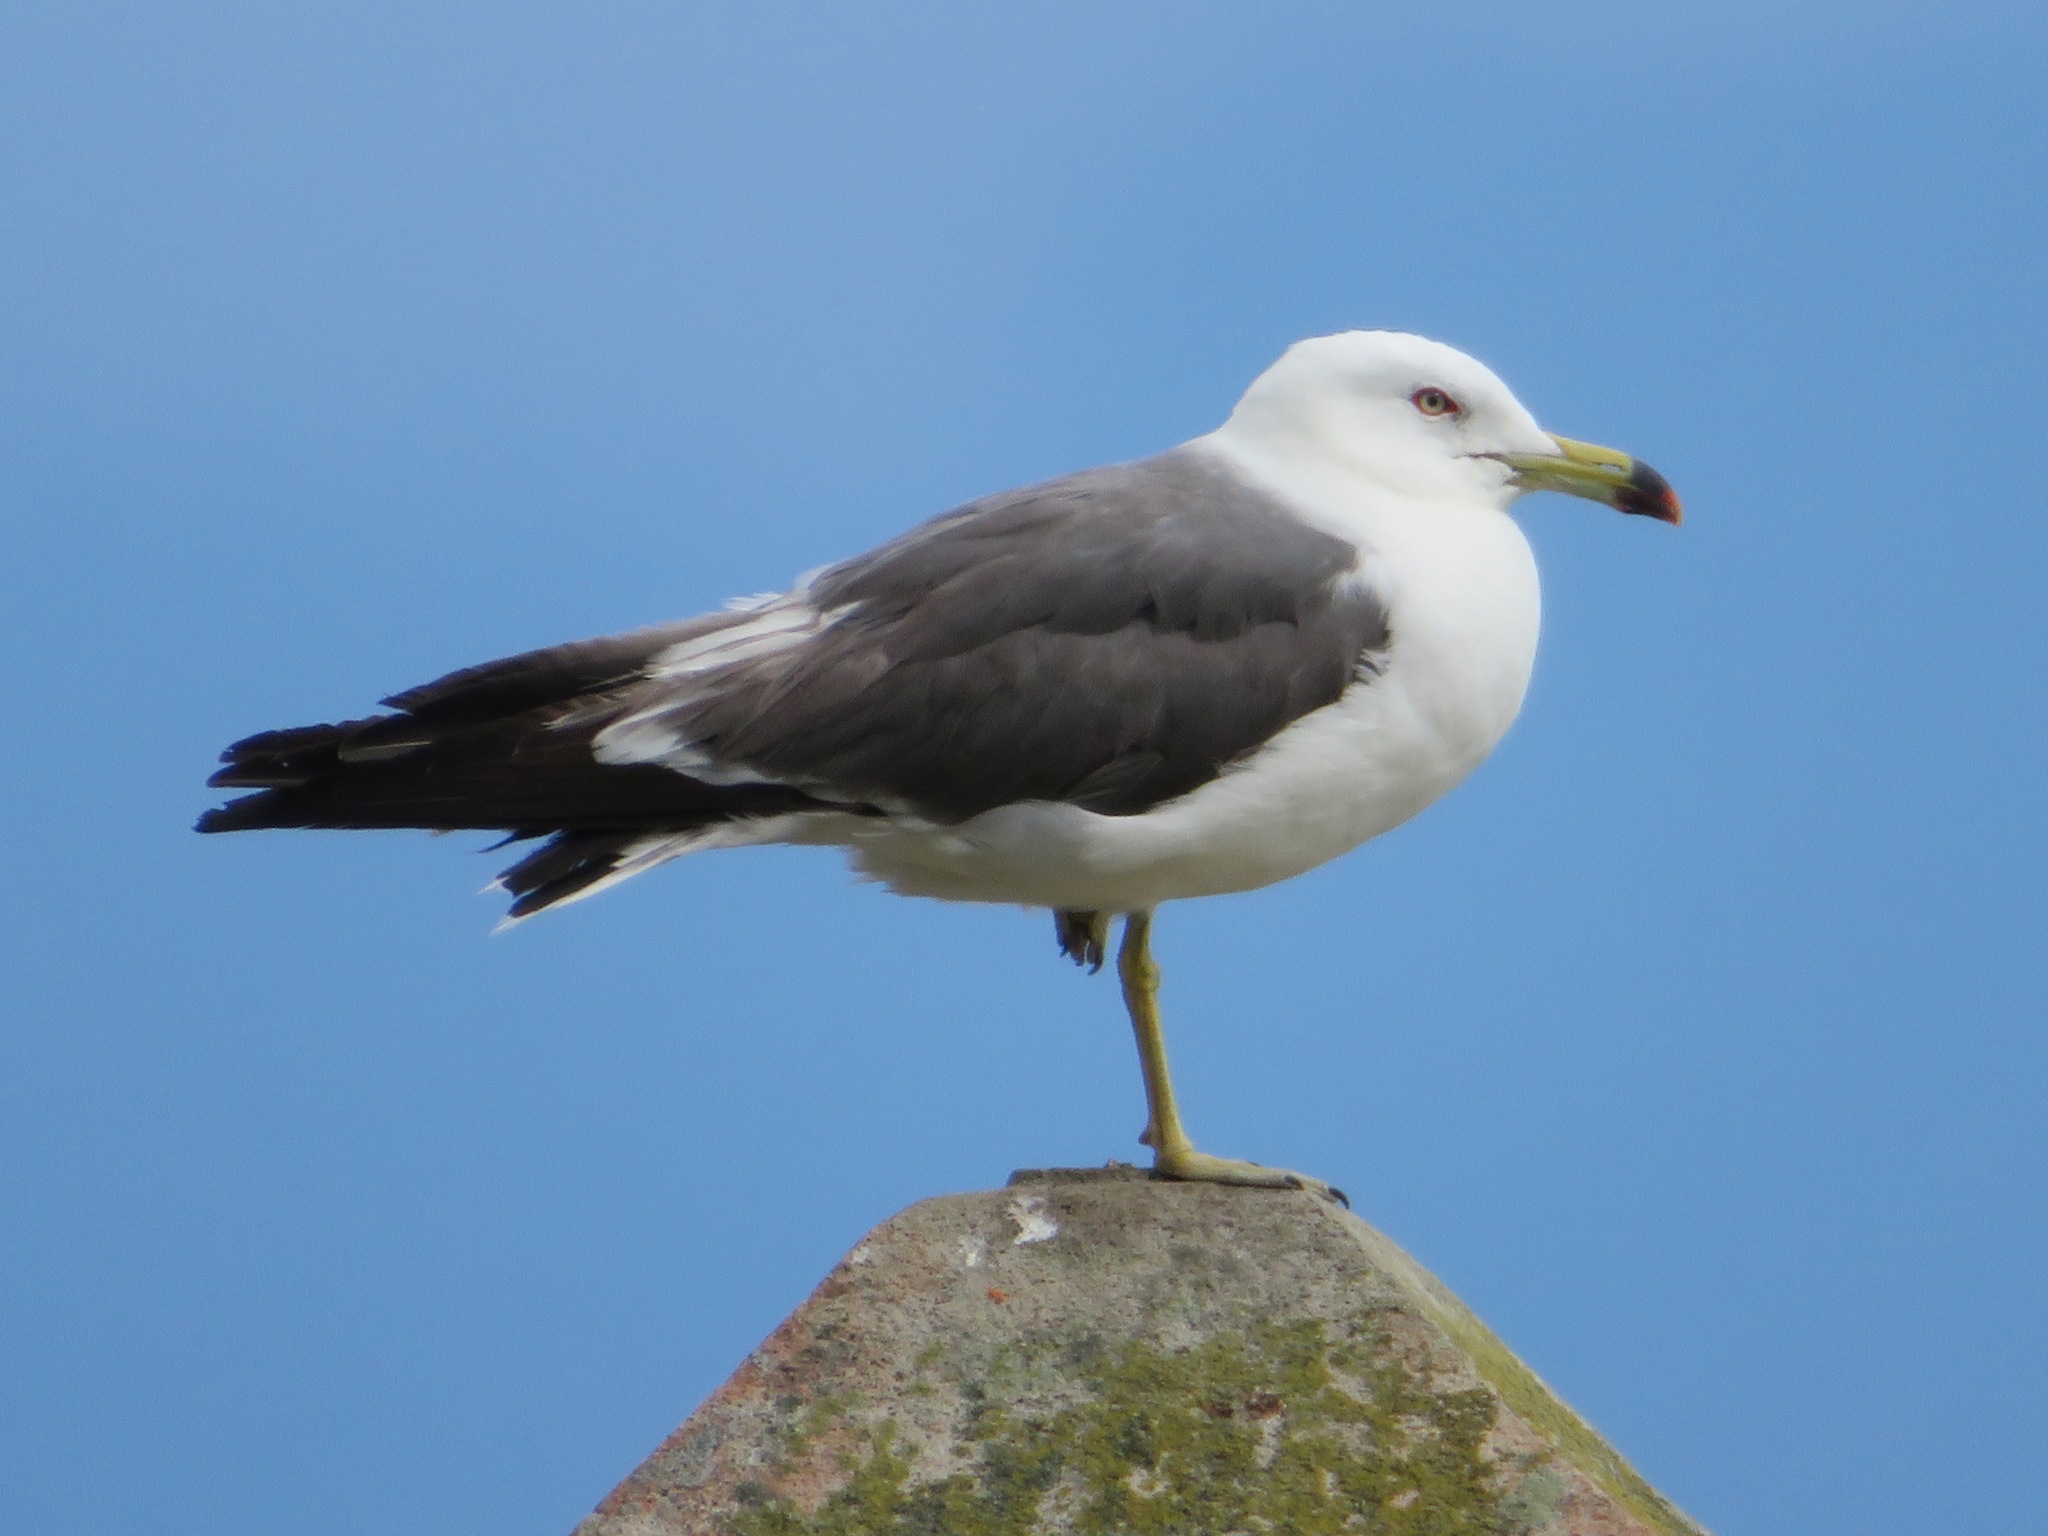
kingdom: Animalia
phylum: Chordata
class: Aves
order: Charadriiformes
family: Laridae
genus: Larus
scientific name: Larus crassirostris
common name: Black-tailed gull
